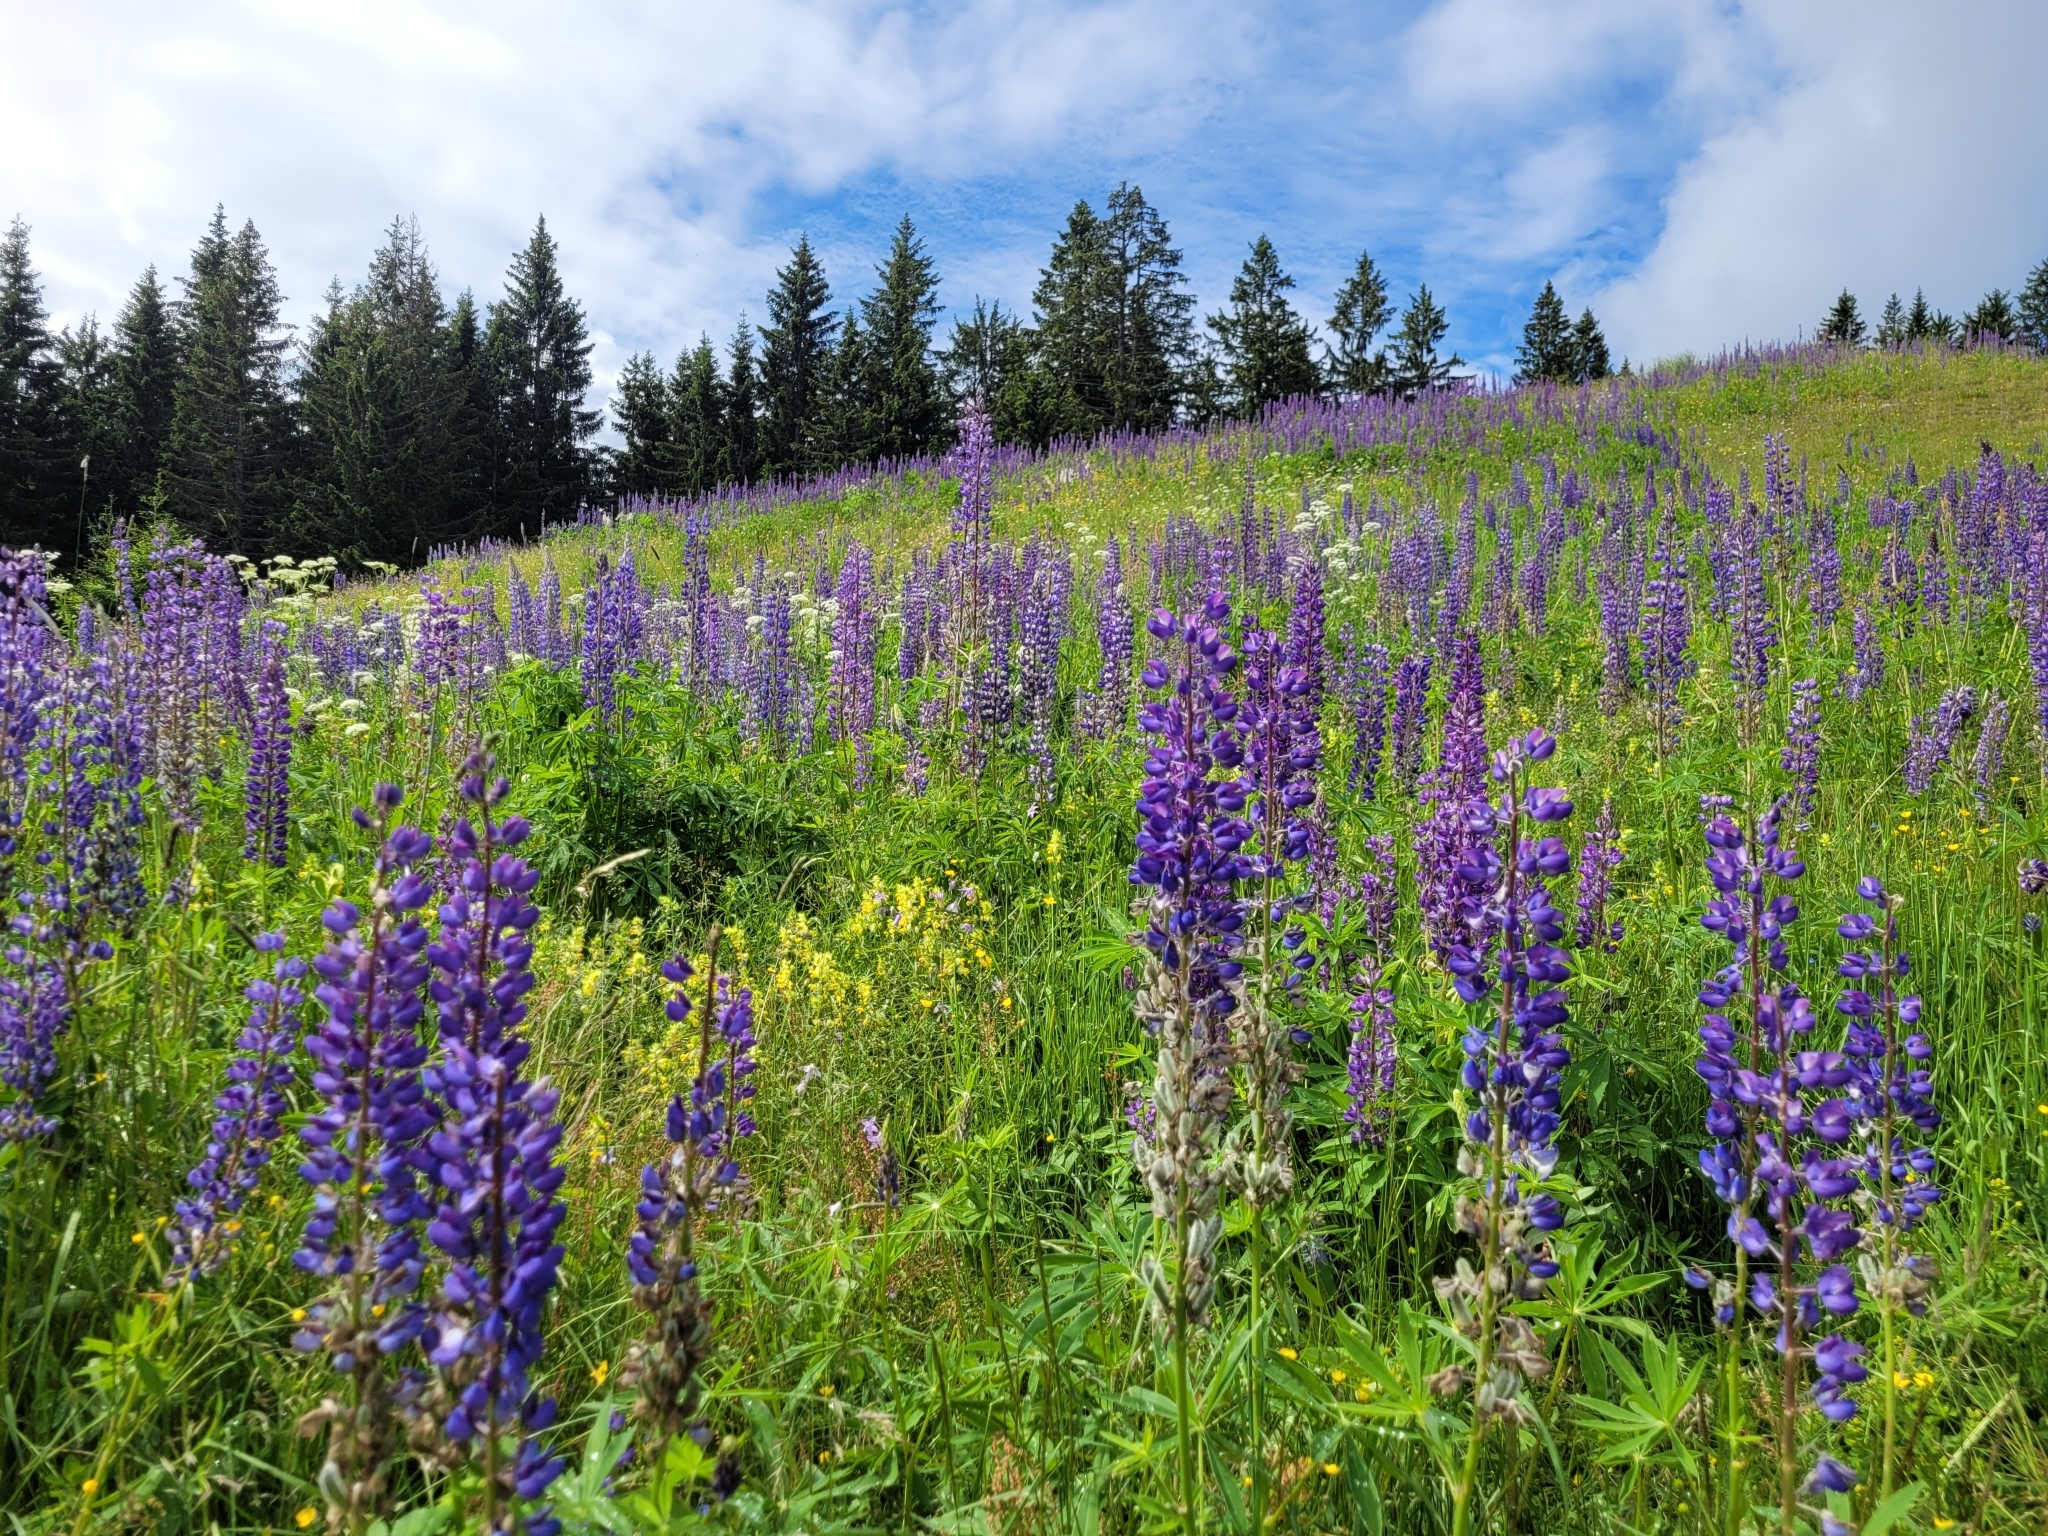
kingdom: Plantae
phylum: Tracheophyta
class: Magnoliopsida
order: Fabales
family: Fabaceae
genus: Lupinus
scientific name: Lupinus polyphyllus
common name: Garden lupin
